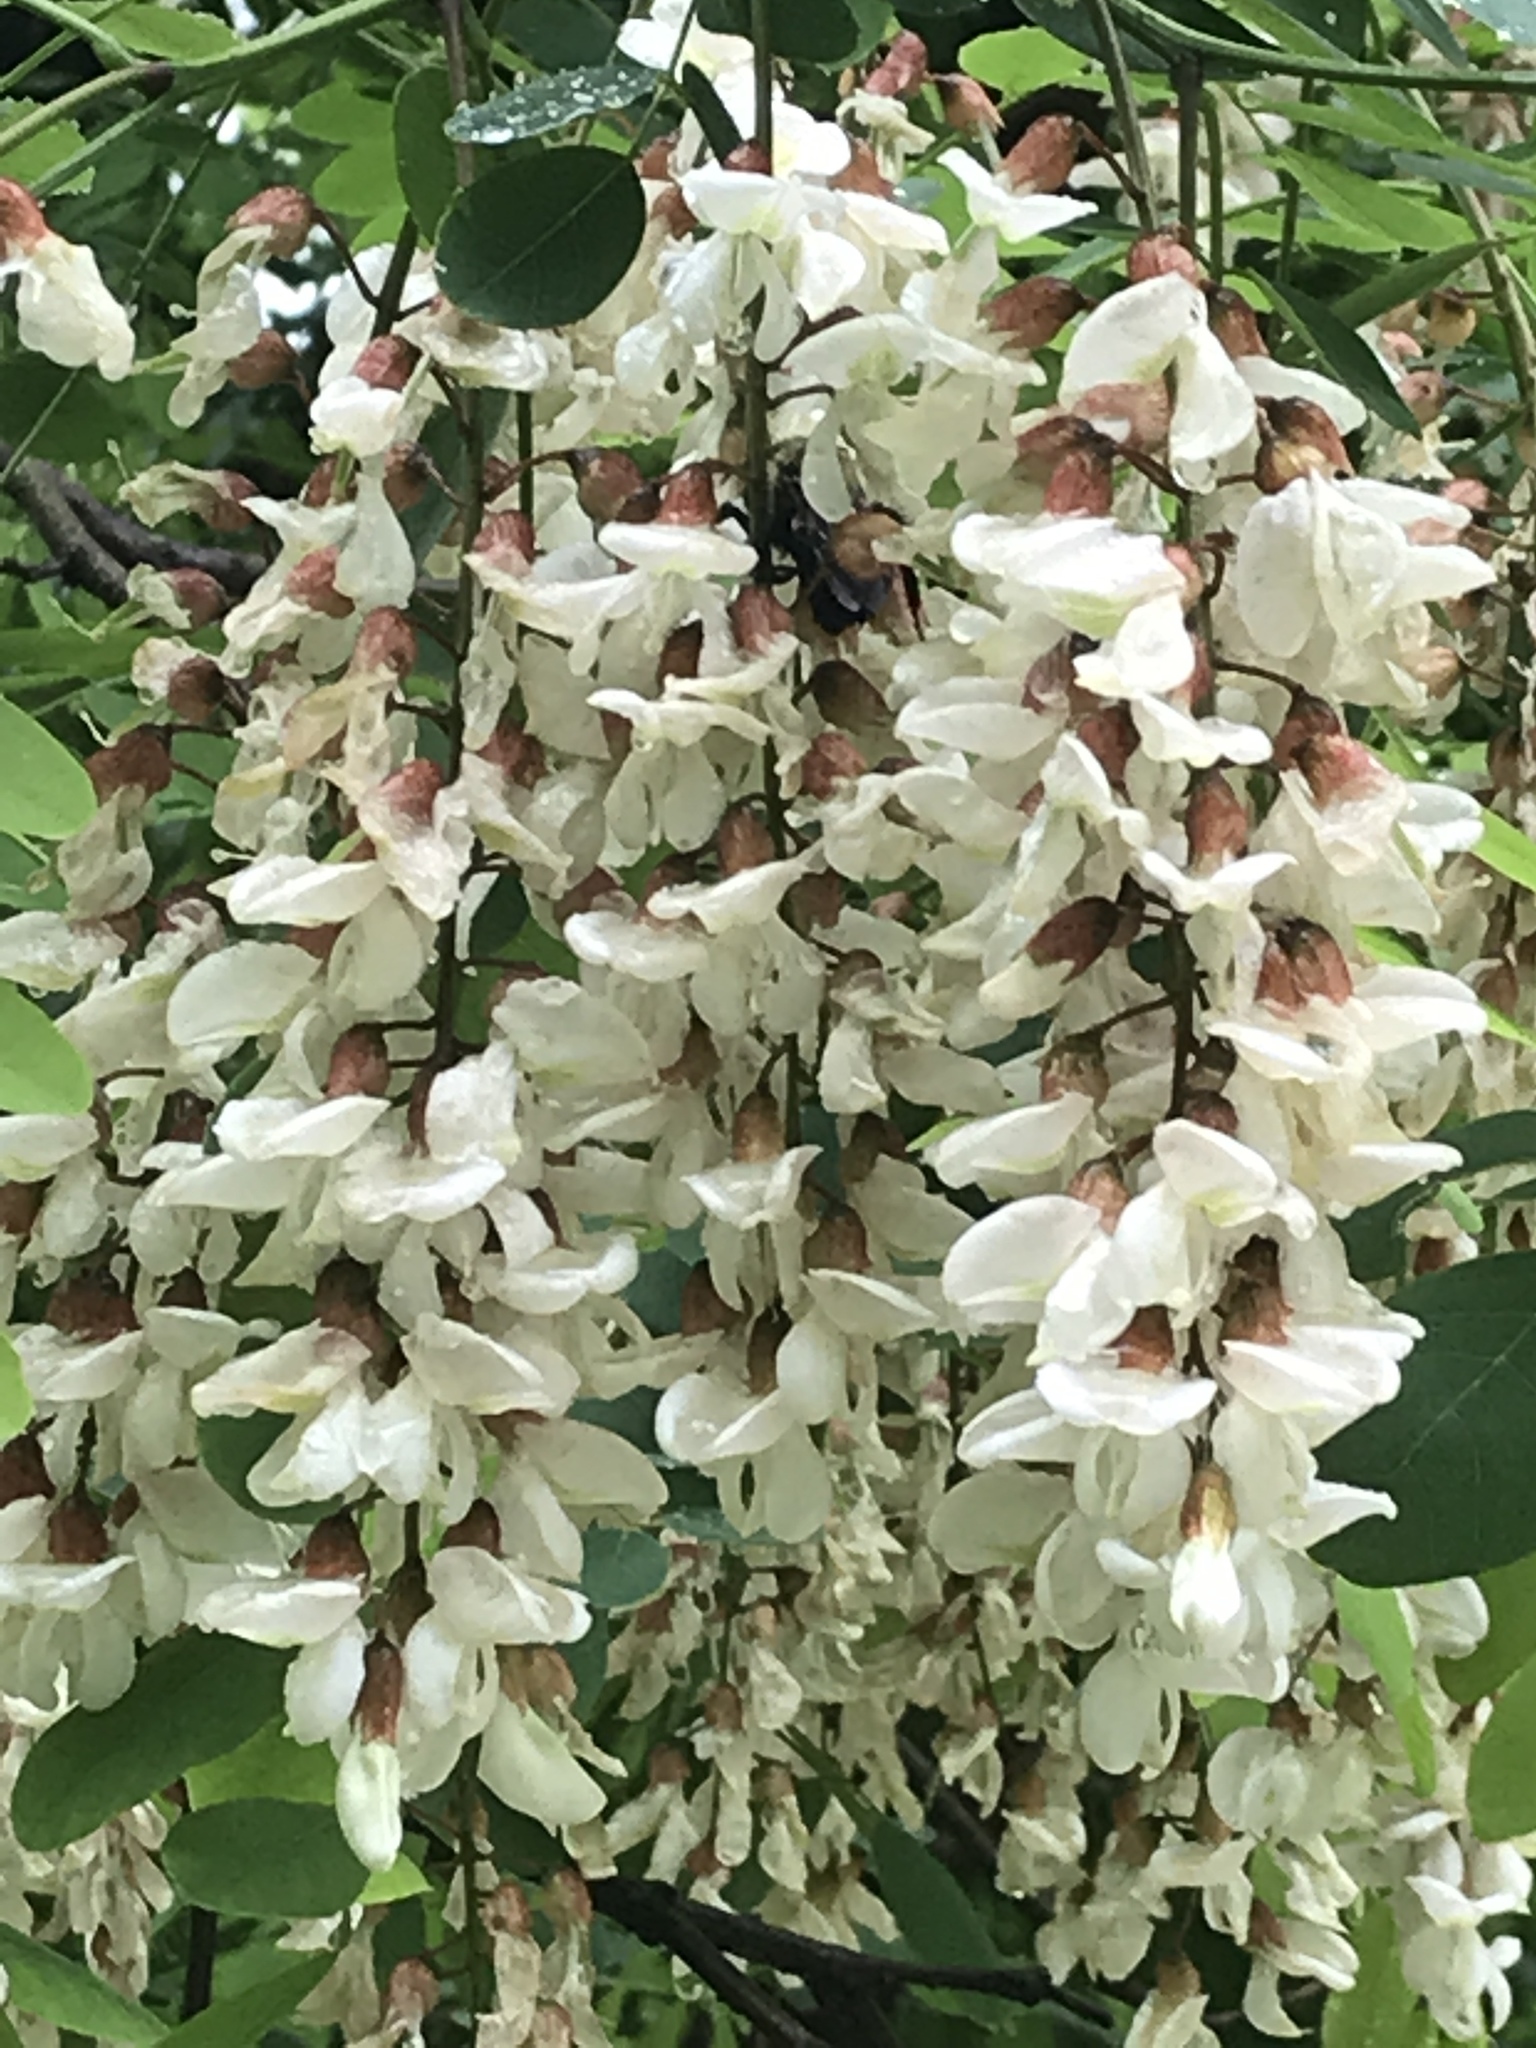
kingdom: Plantae
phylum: Tracheophyta
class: Magnoliopsida
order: Fabales
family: Fabaceae
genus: Robinia
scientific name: Robinia pseudoacacia
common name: Black locust
